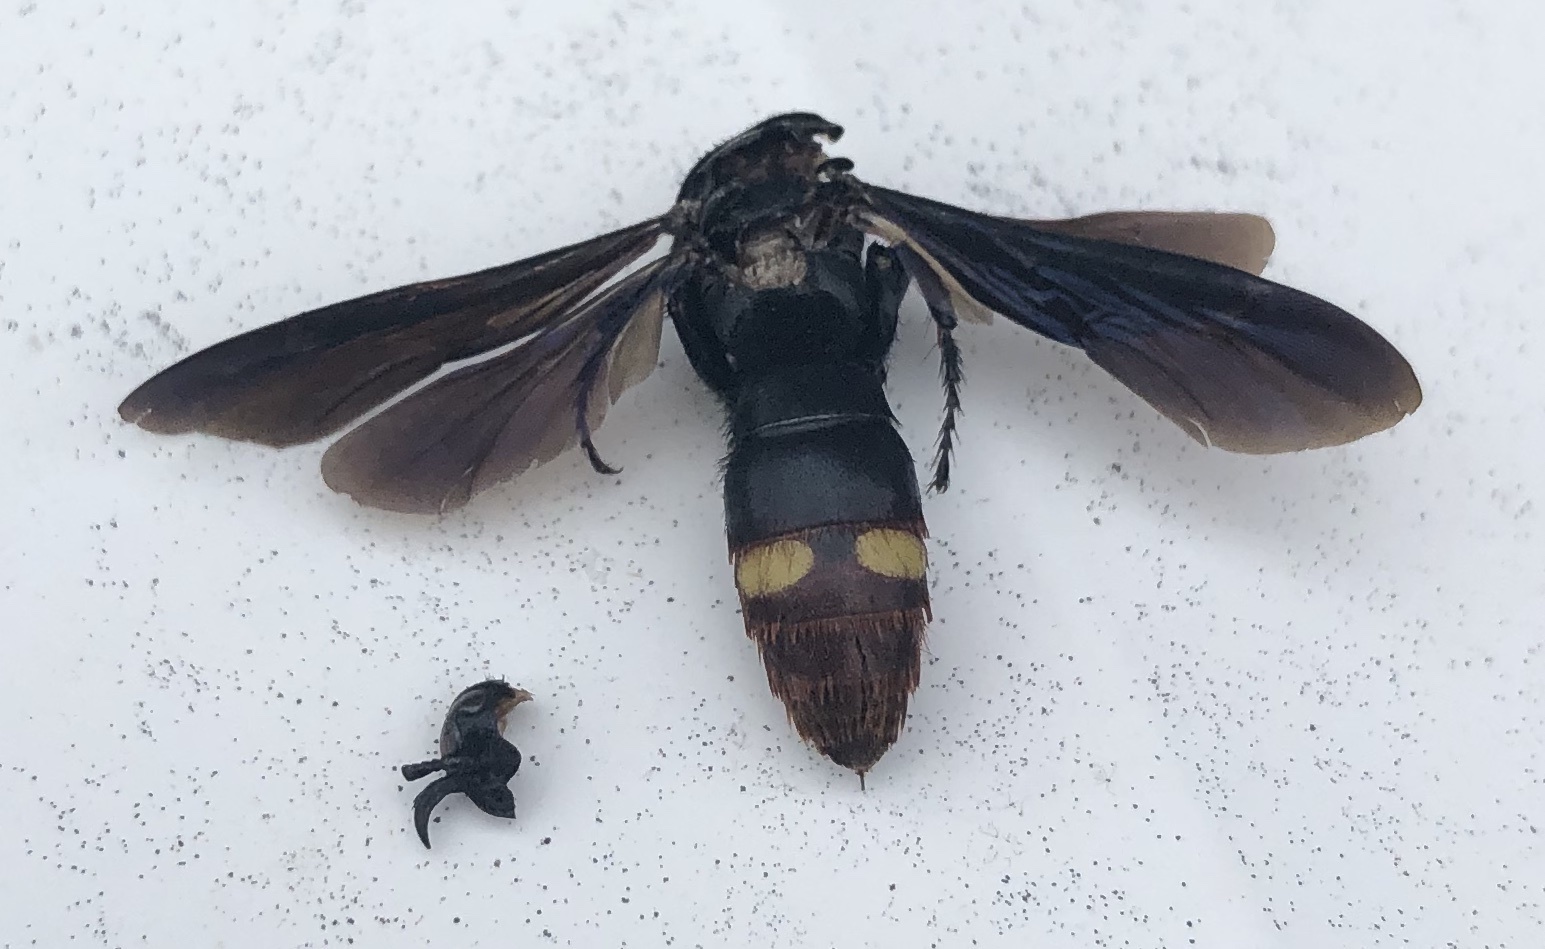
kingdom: Animalia
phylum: Arthropoda
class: Insecta
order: Hymenoptera
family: Scoliidae
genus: Scolia
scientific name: Scolia dubia
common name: Blue-winged scoliid wasp
